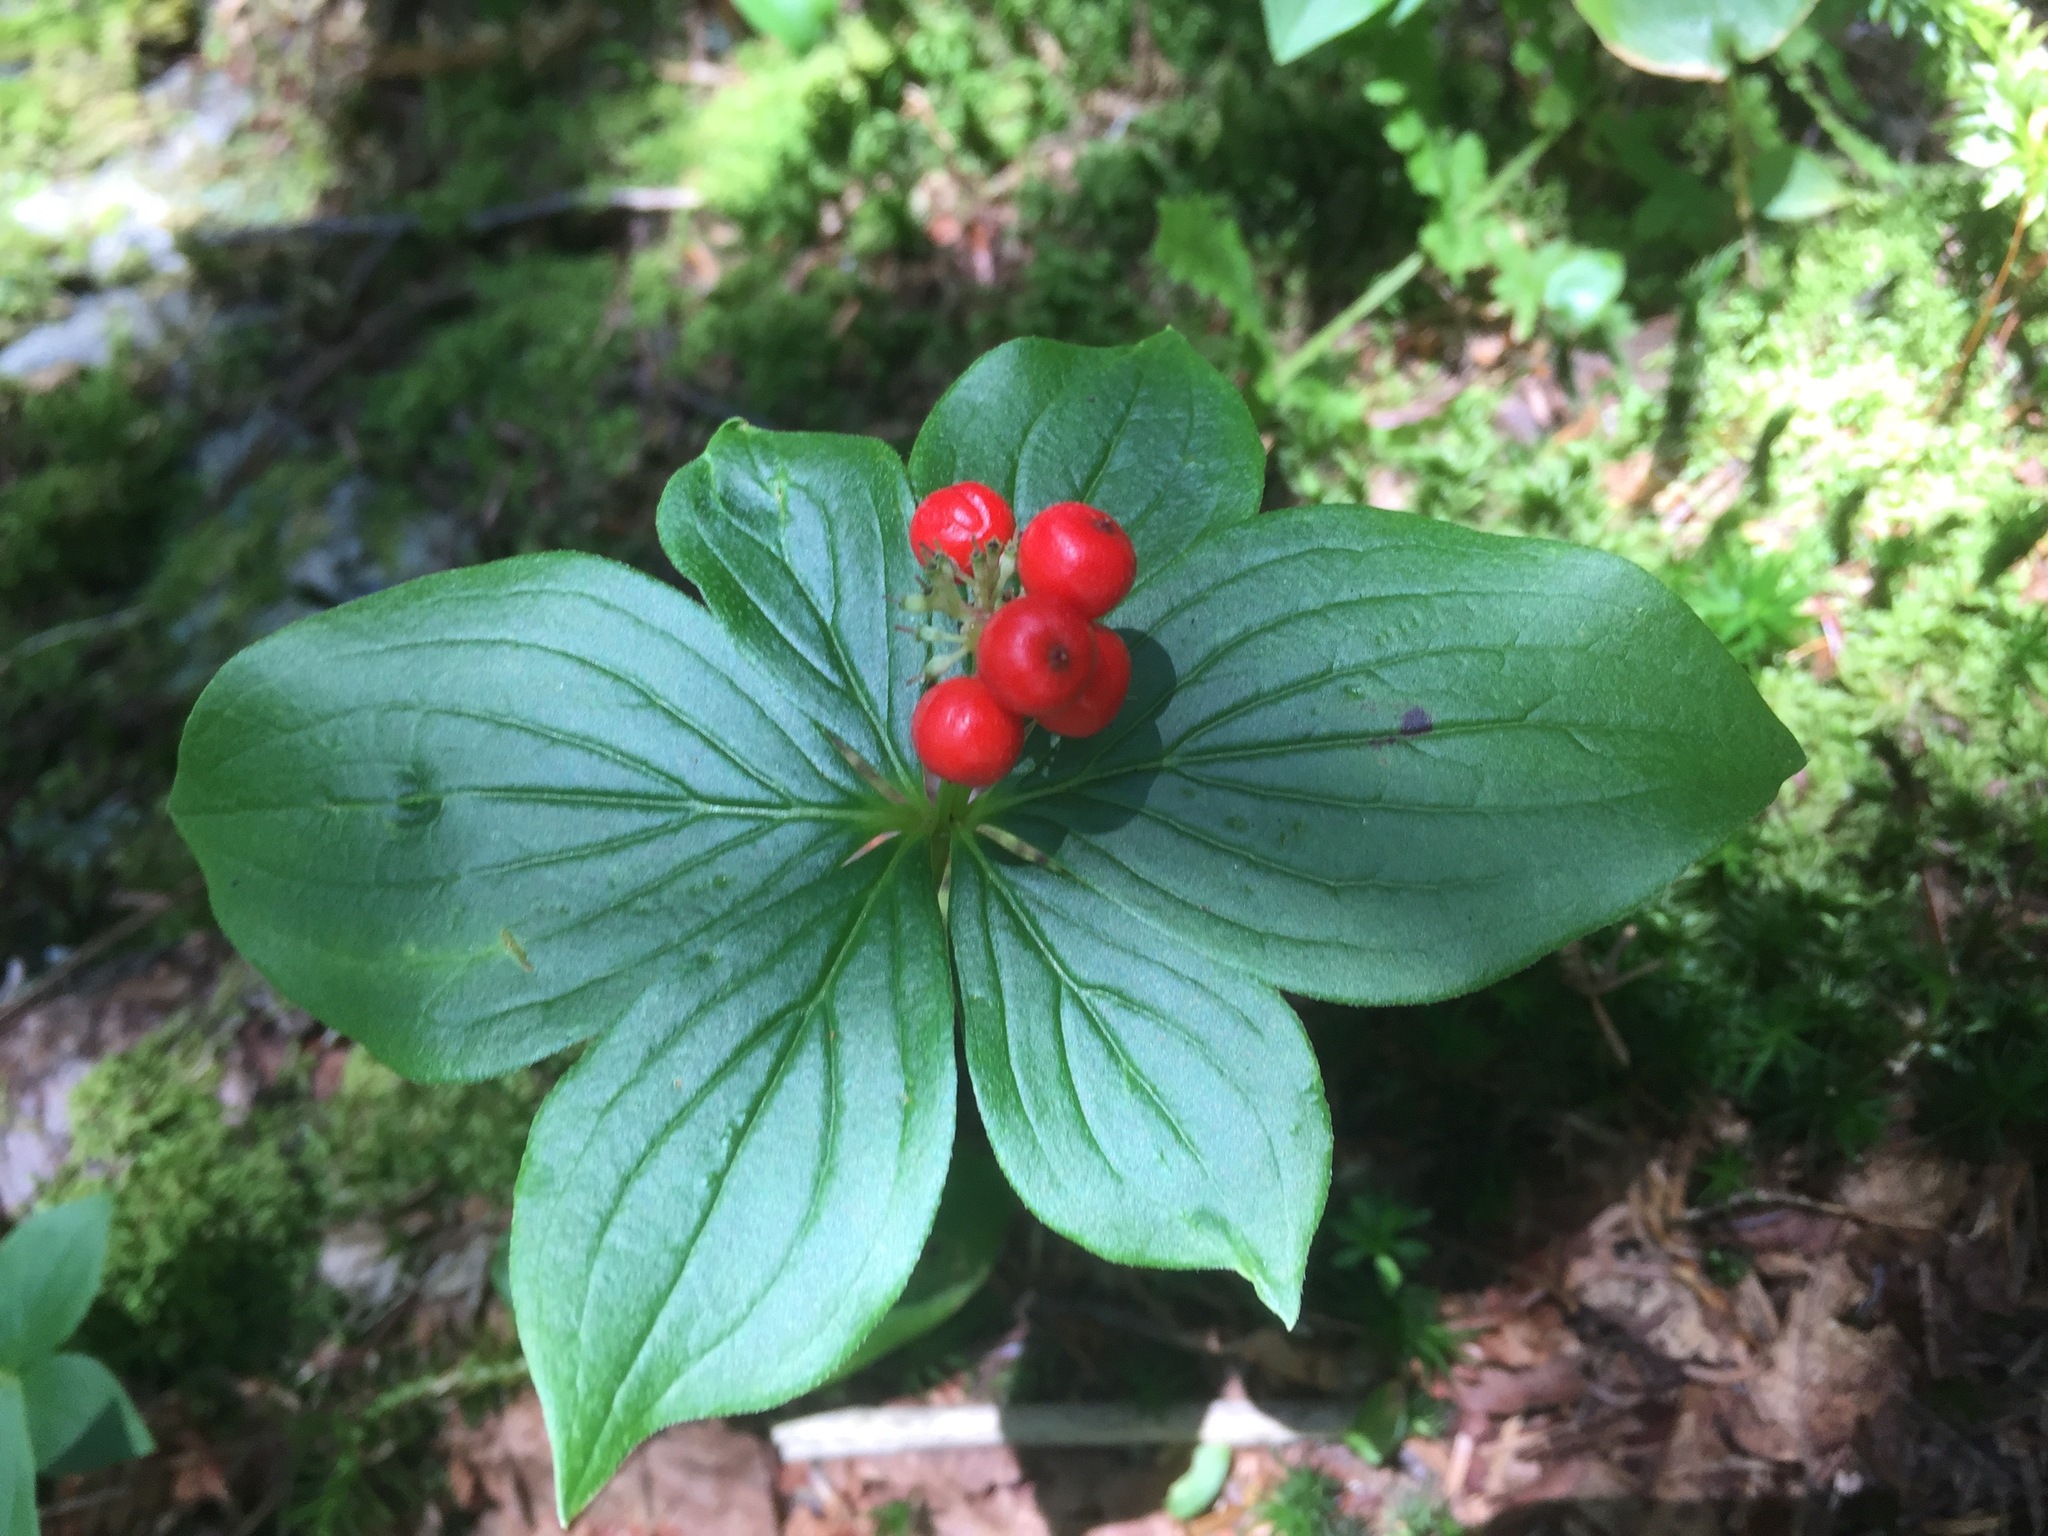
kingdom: Plantae
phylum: Tracheophyta
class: Magnoliopsida
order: Cornales
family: Cornaceae
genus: Cornus
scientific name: Cornus canadensis
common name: Creeping dogwood
